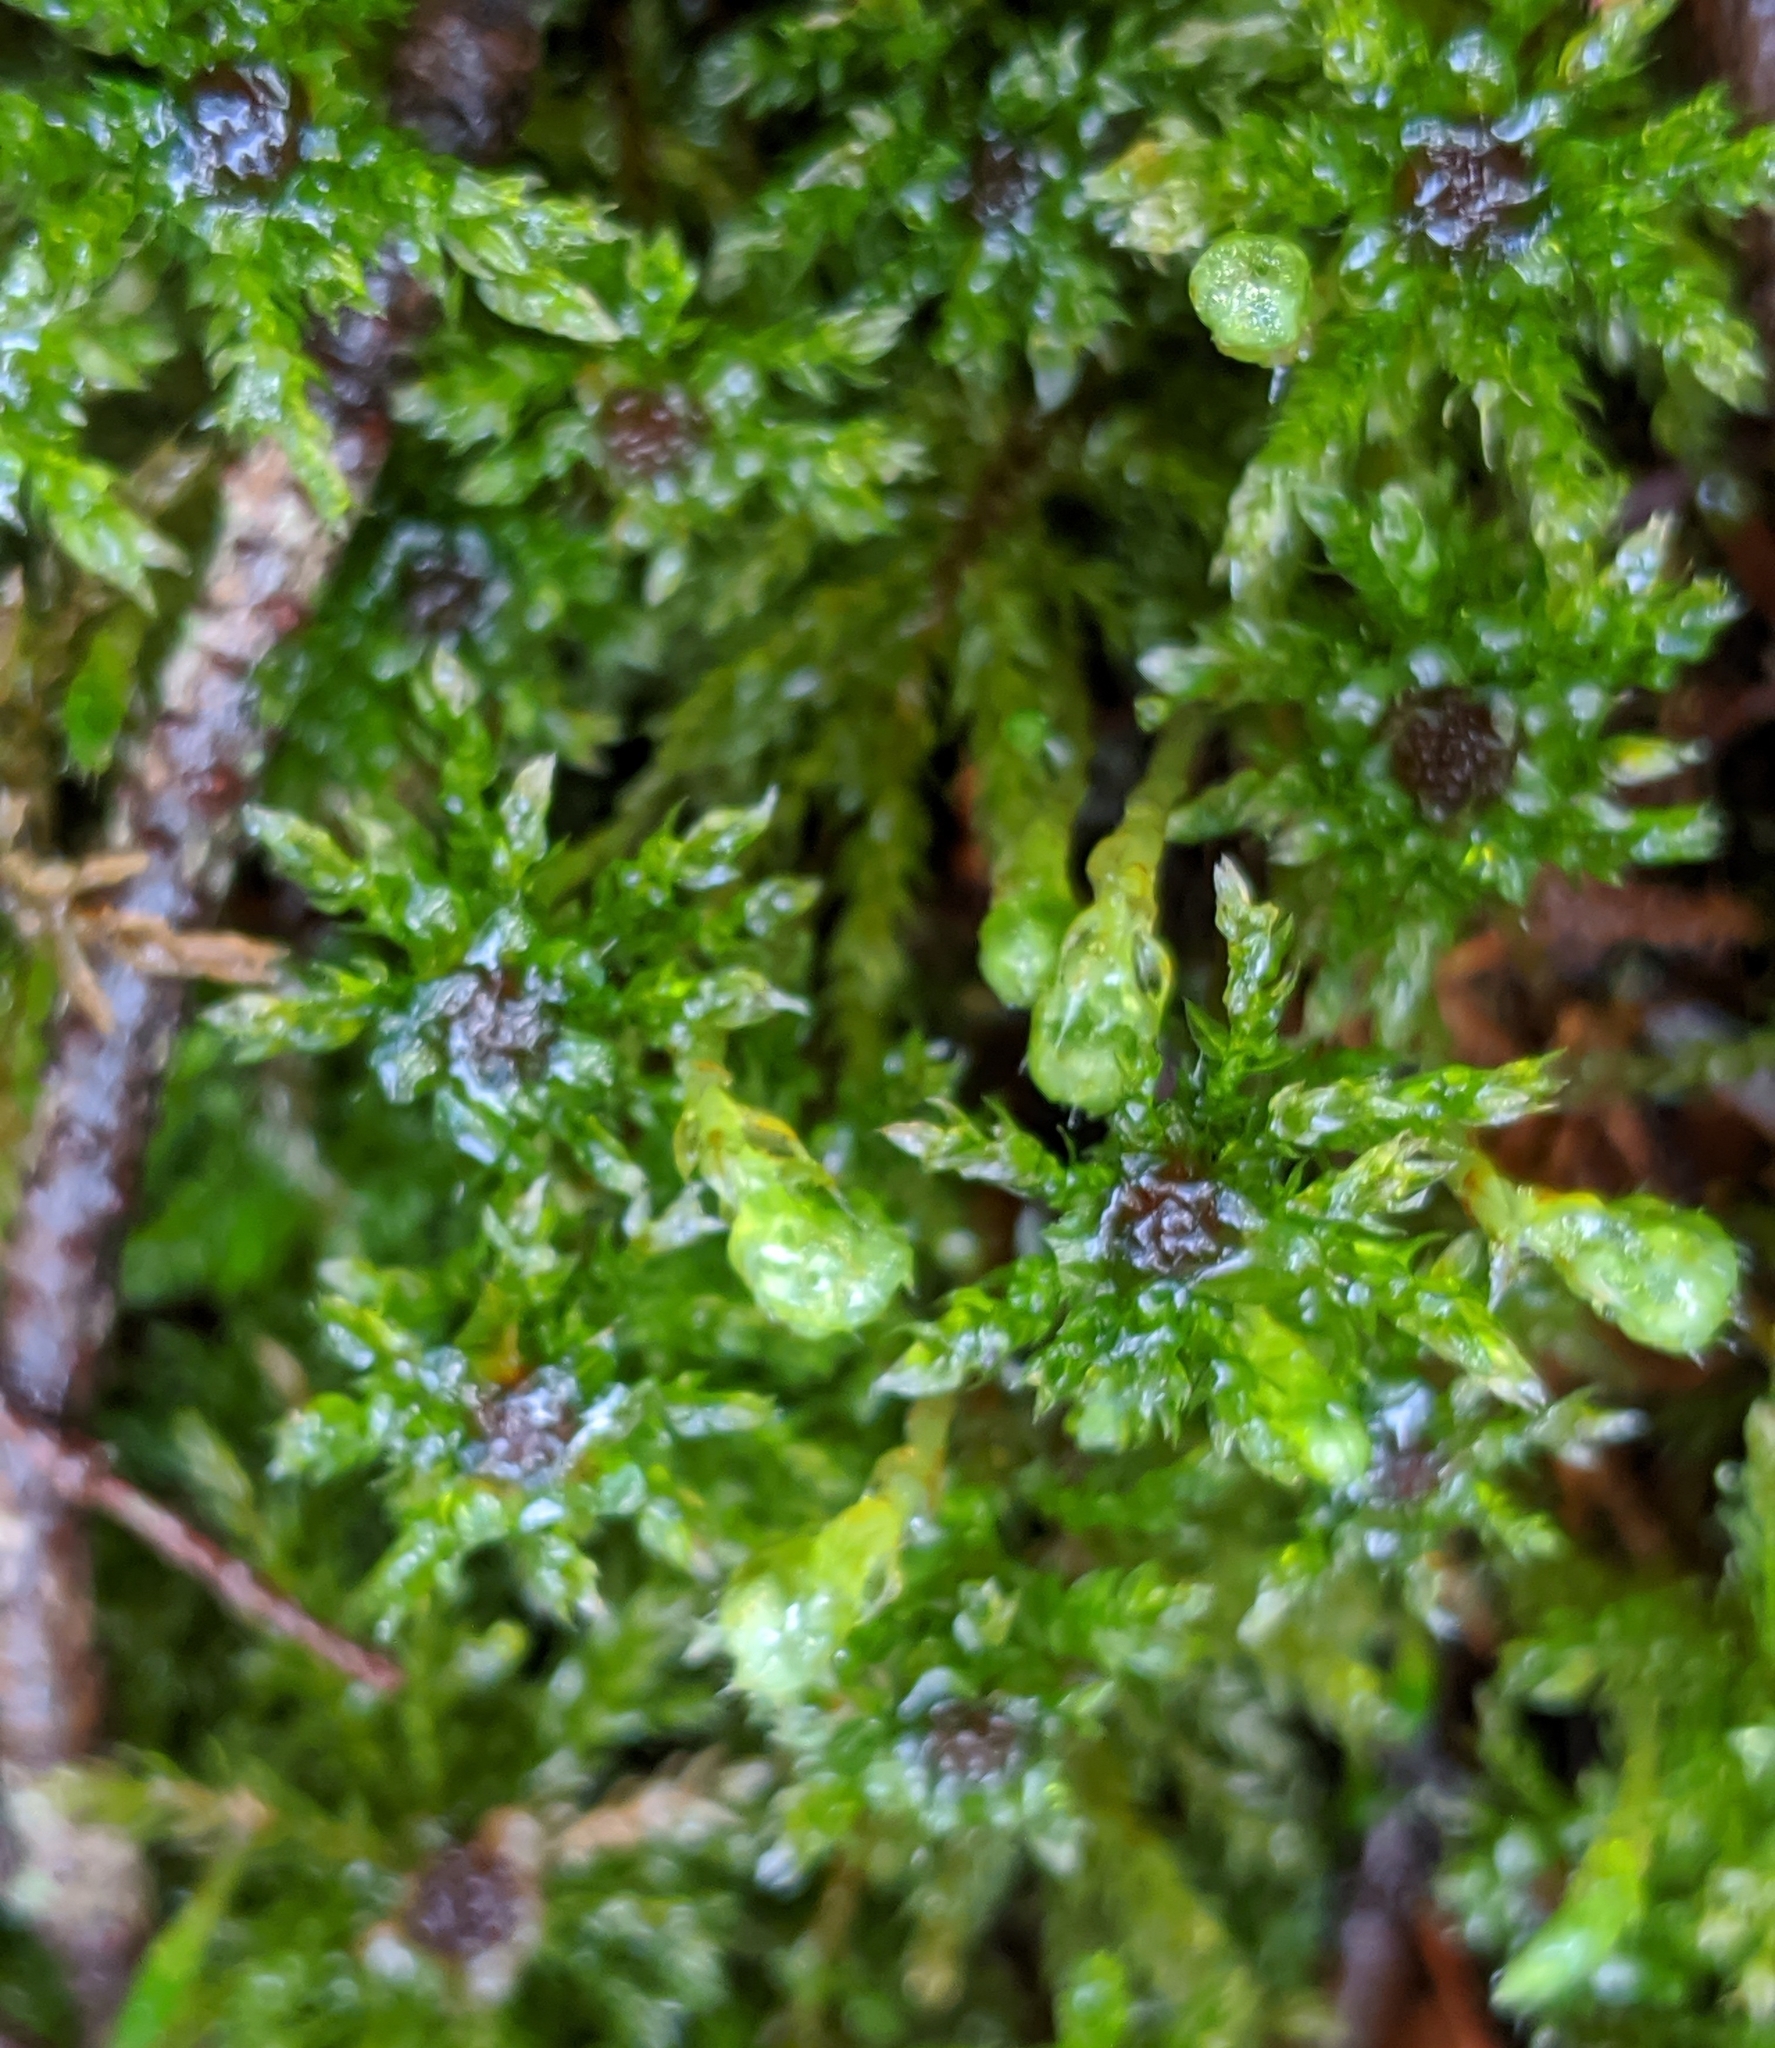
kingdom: Plantae
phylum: Bryophyta
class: Bryopsida
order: Bryales
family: Mniaceae
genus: Leucolepis
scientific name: Leucolepis acanthoneura
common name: Leucolepis umbrella moss
